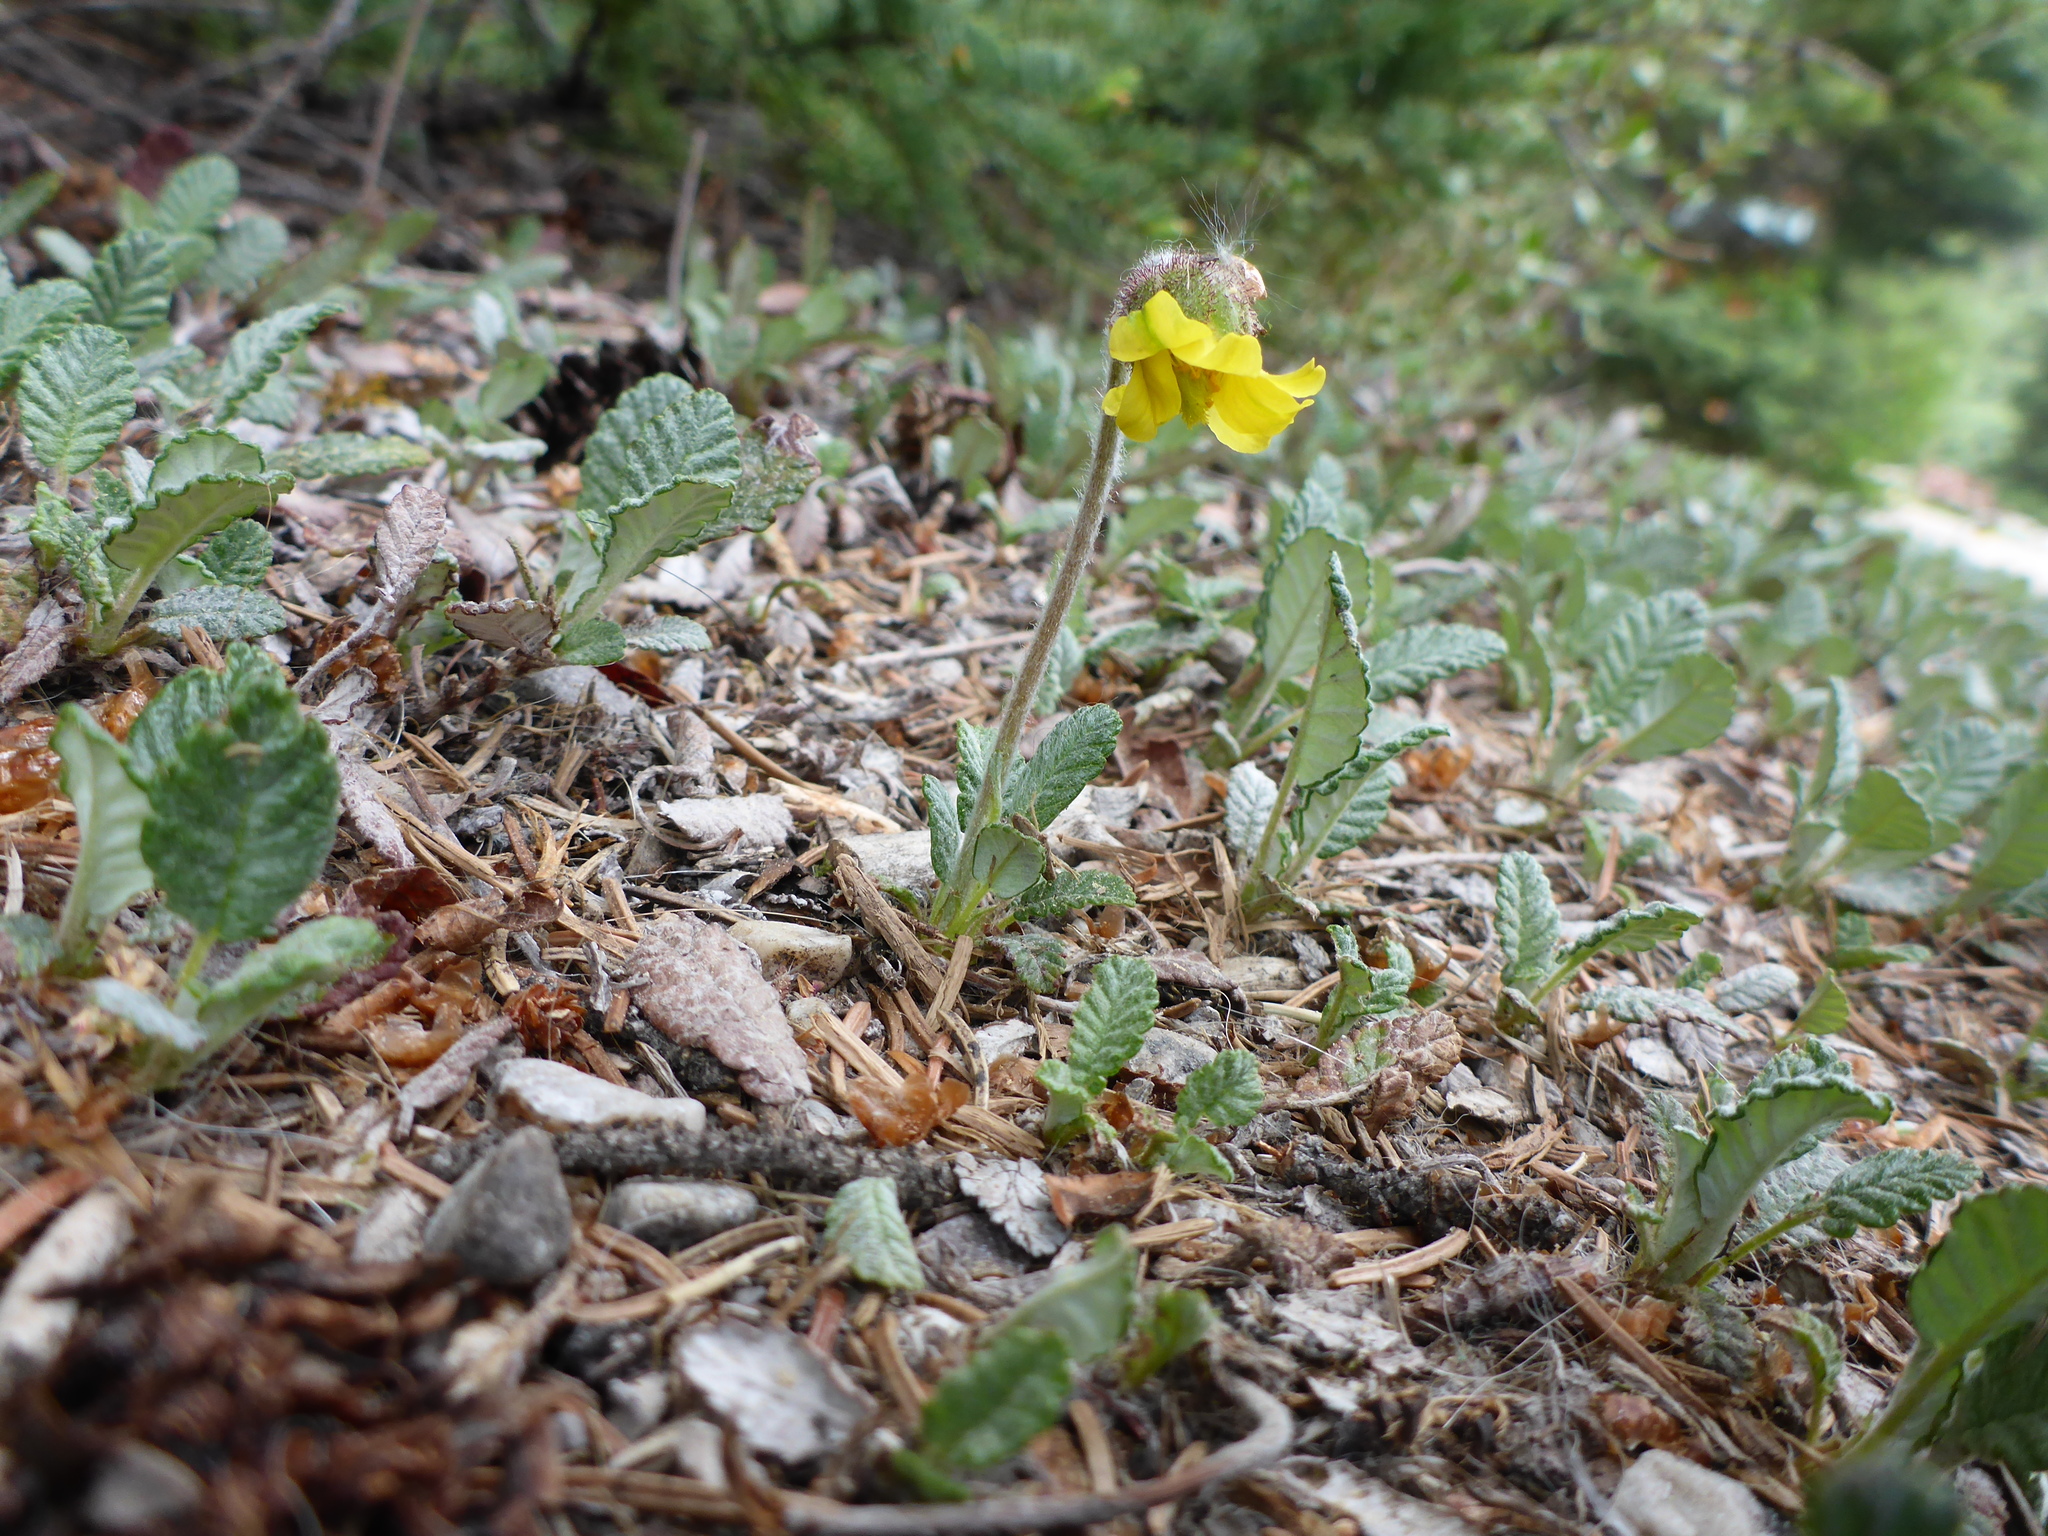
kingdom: Plantae
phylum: Tracheophyta
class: Magnoliopsida
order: Rosales
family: Rosaceae
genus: Dryas
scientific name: Dryas drummondii
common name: Drummond's dryad
